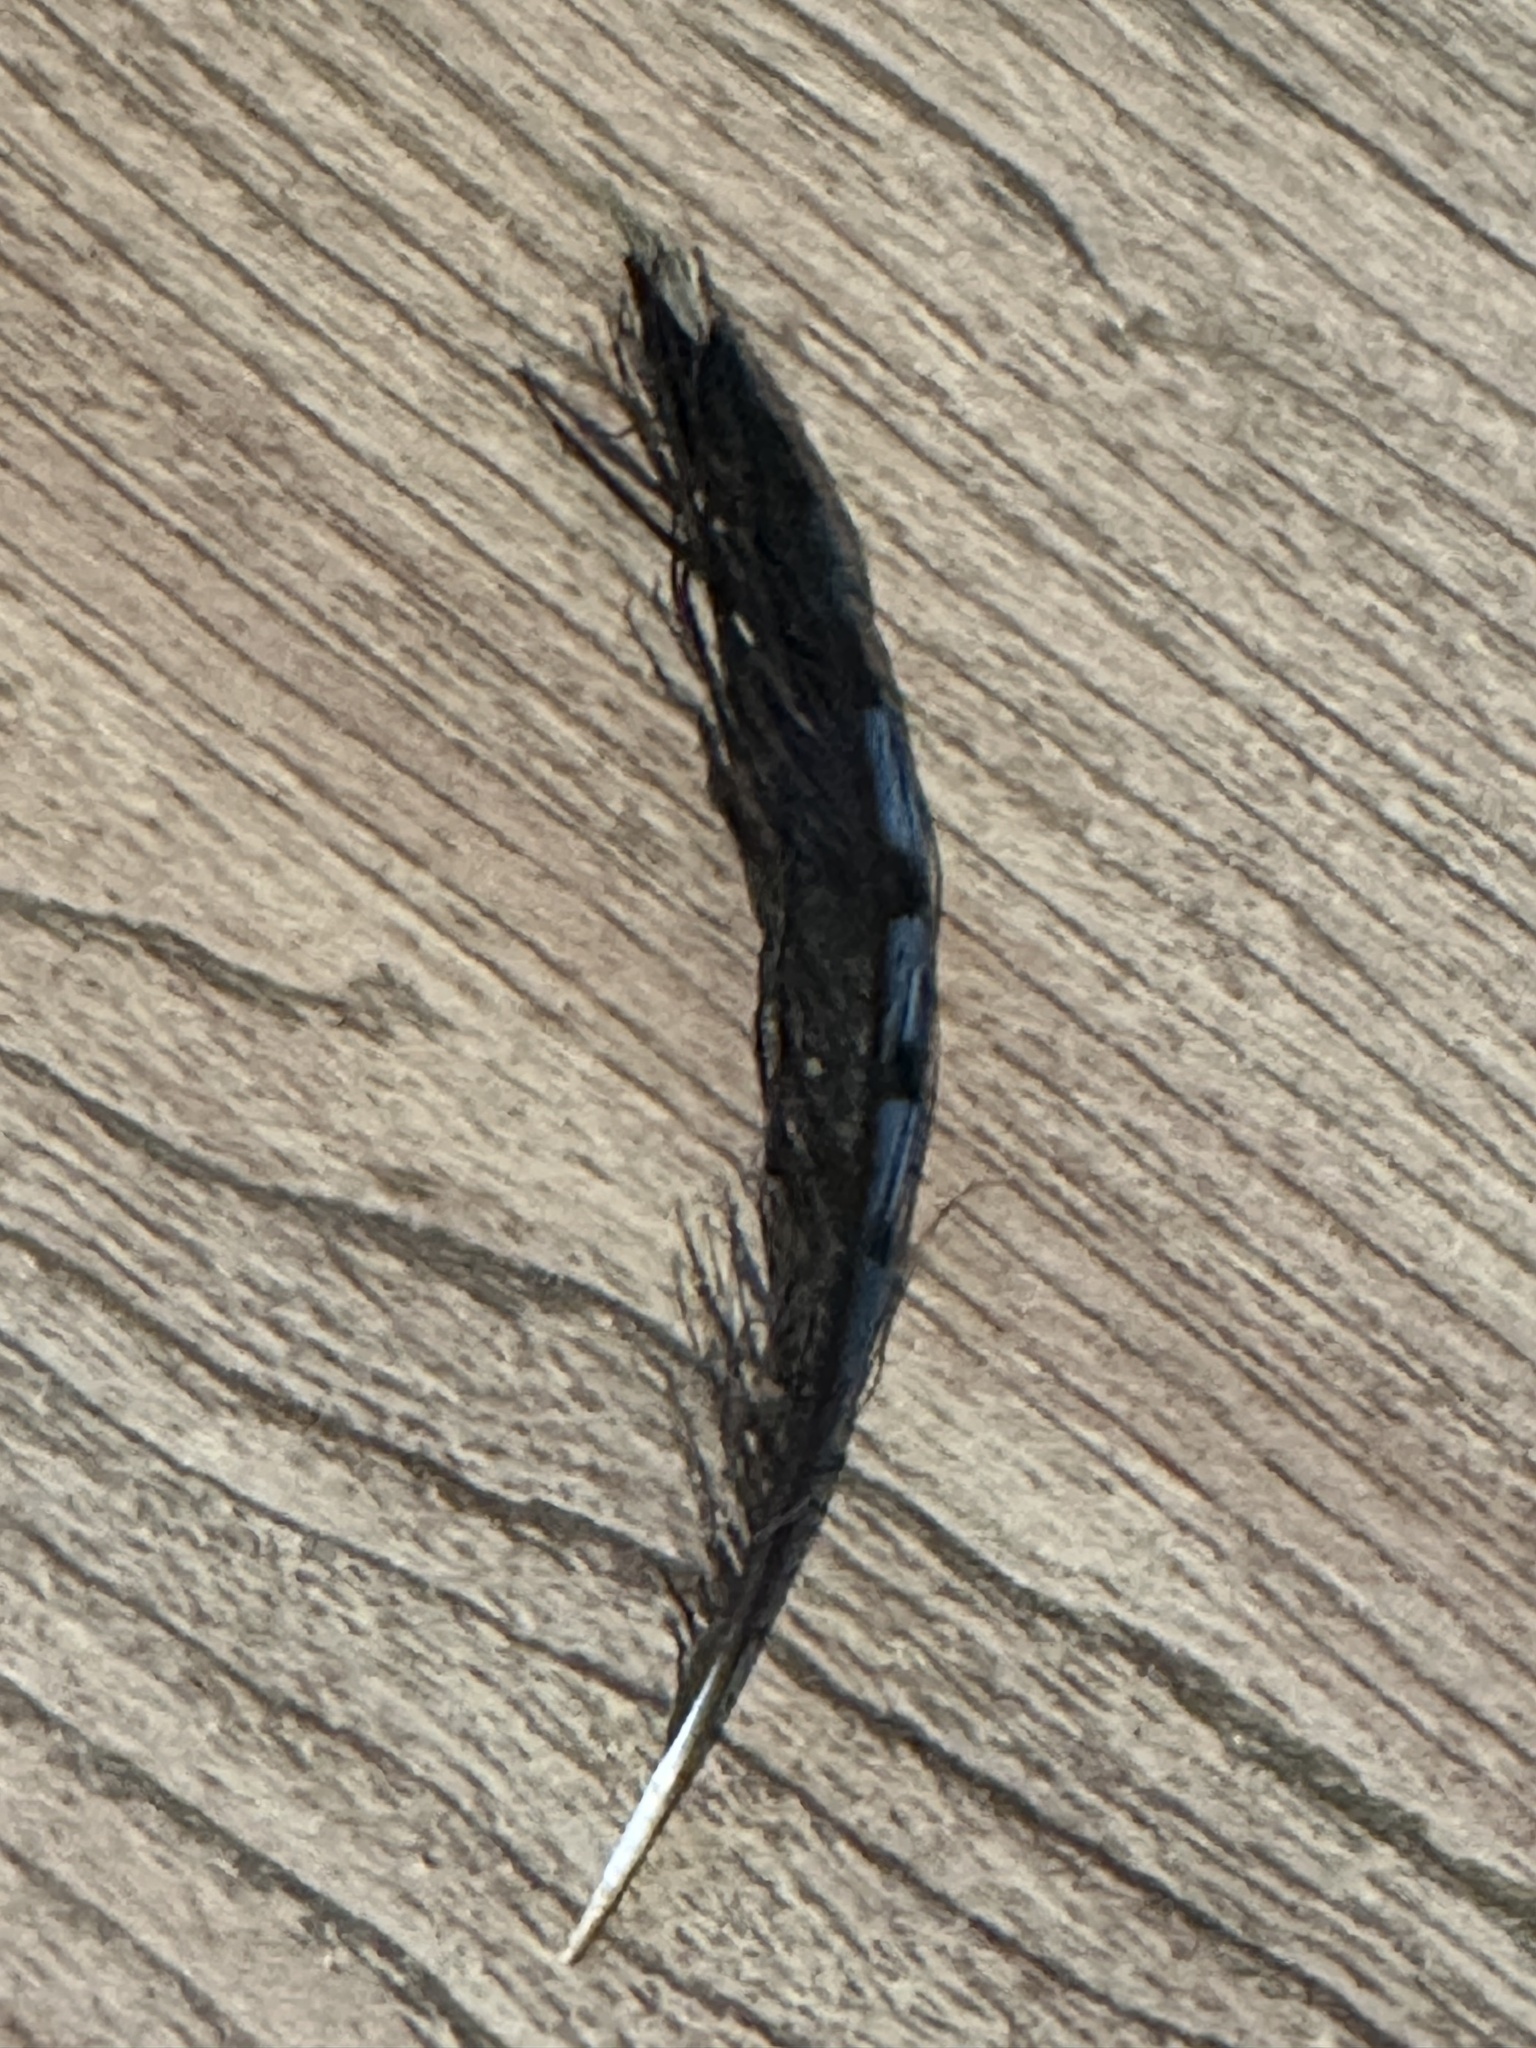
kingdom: Animalia
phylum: Chordata
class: Aves
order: Passeriformes
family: Corvidae
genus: Cyanocitta
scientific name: Cyanocitta cristata
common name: Blue jay
